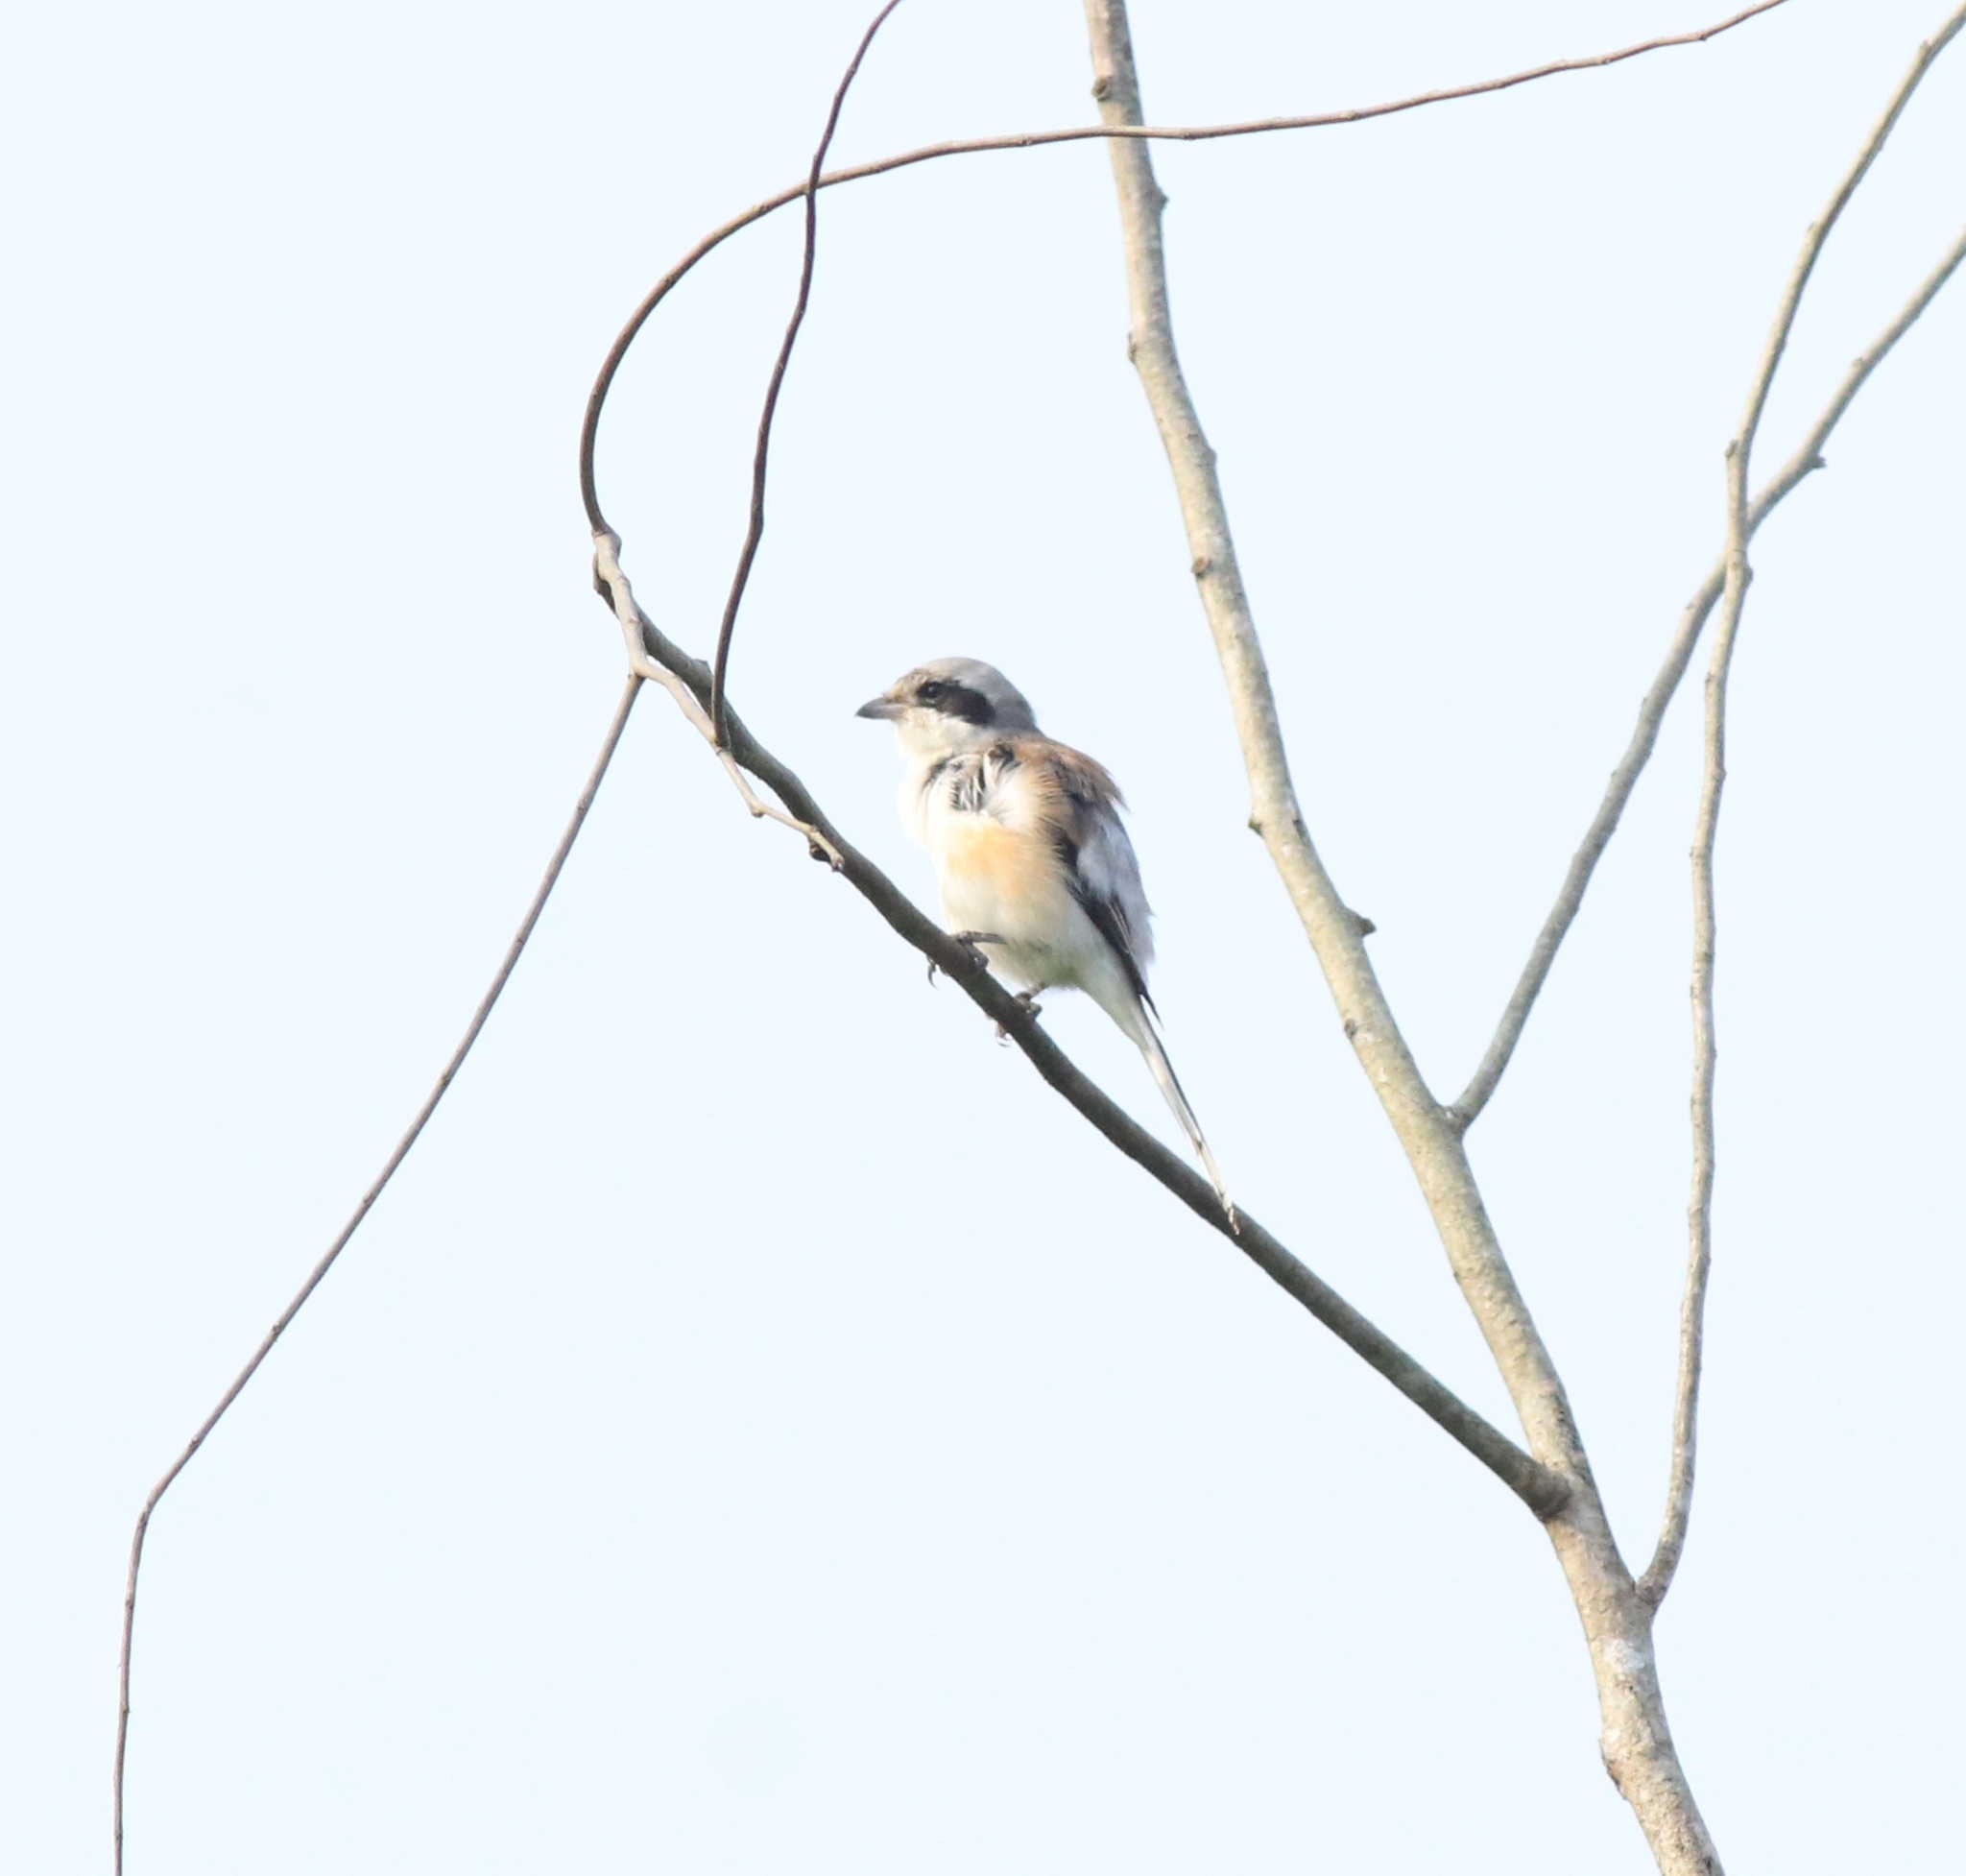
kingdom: Animalia
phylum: Chordata
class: Aves
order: Passeriformes
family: Laniidae
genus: Lanius
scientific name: Lanius vittatus
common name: Bay-backed shrike
